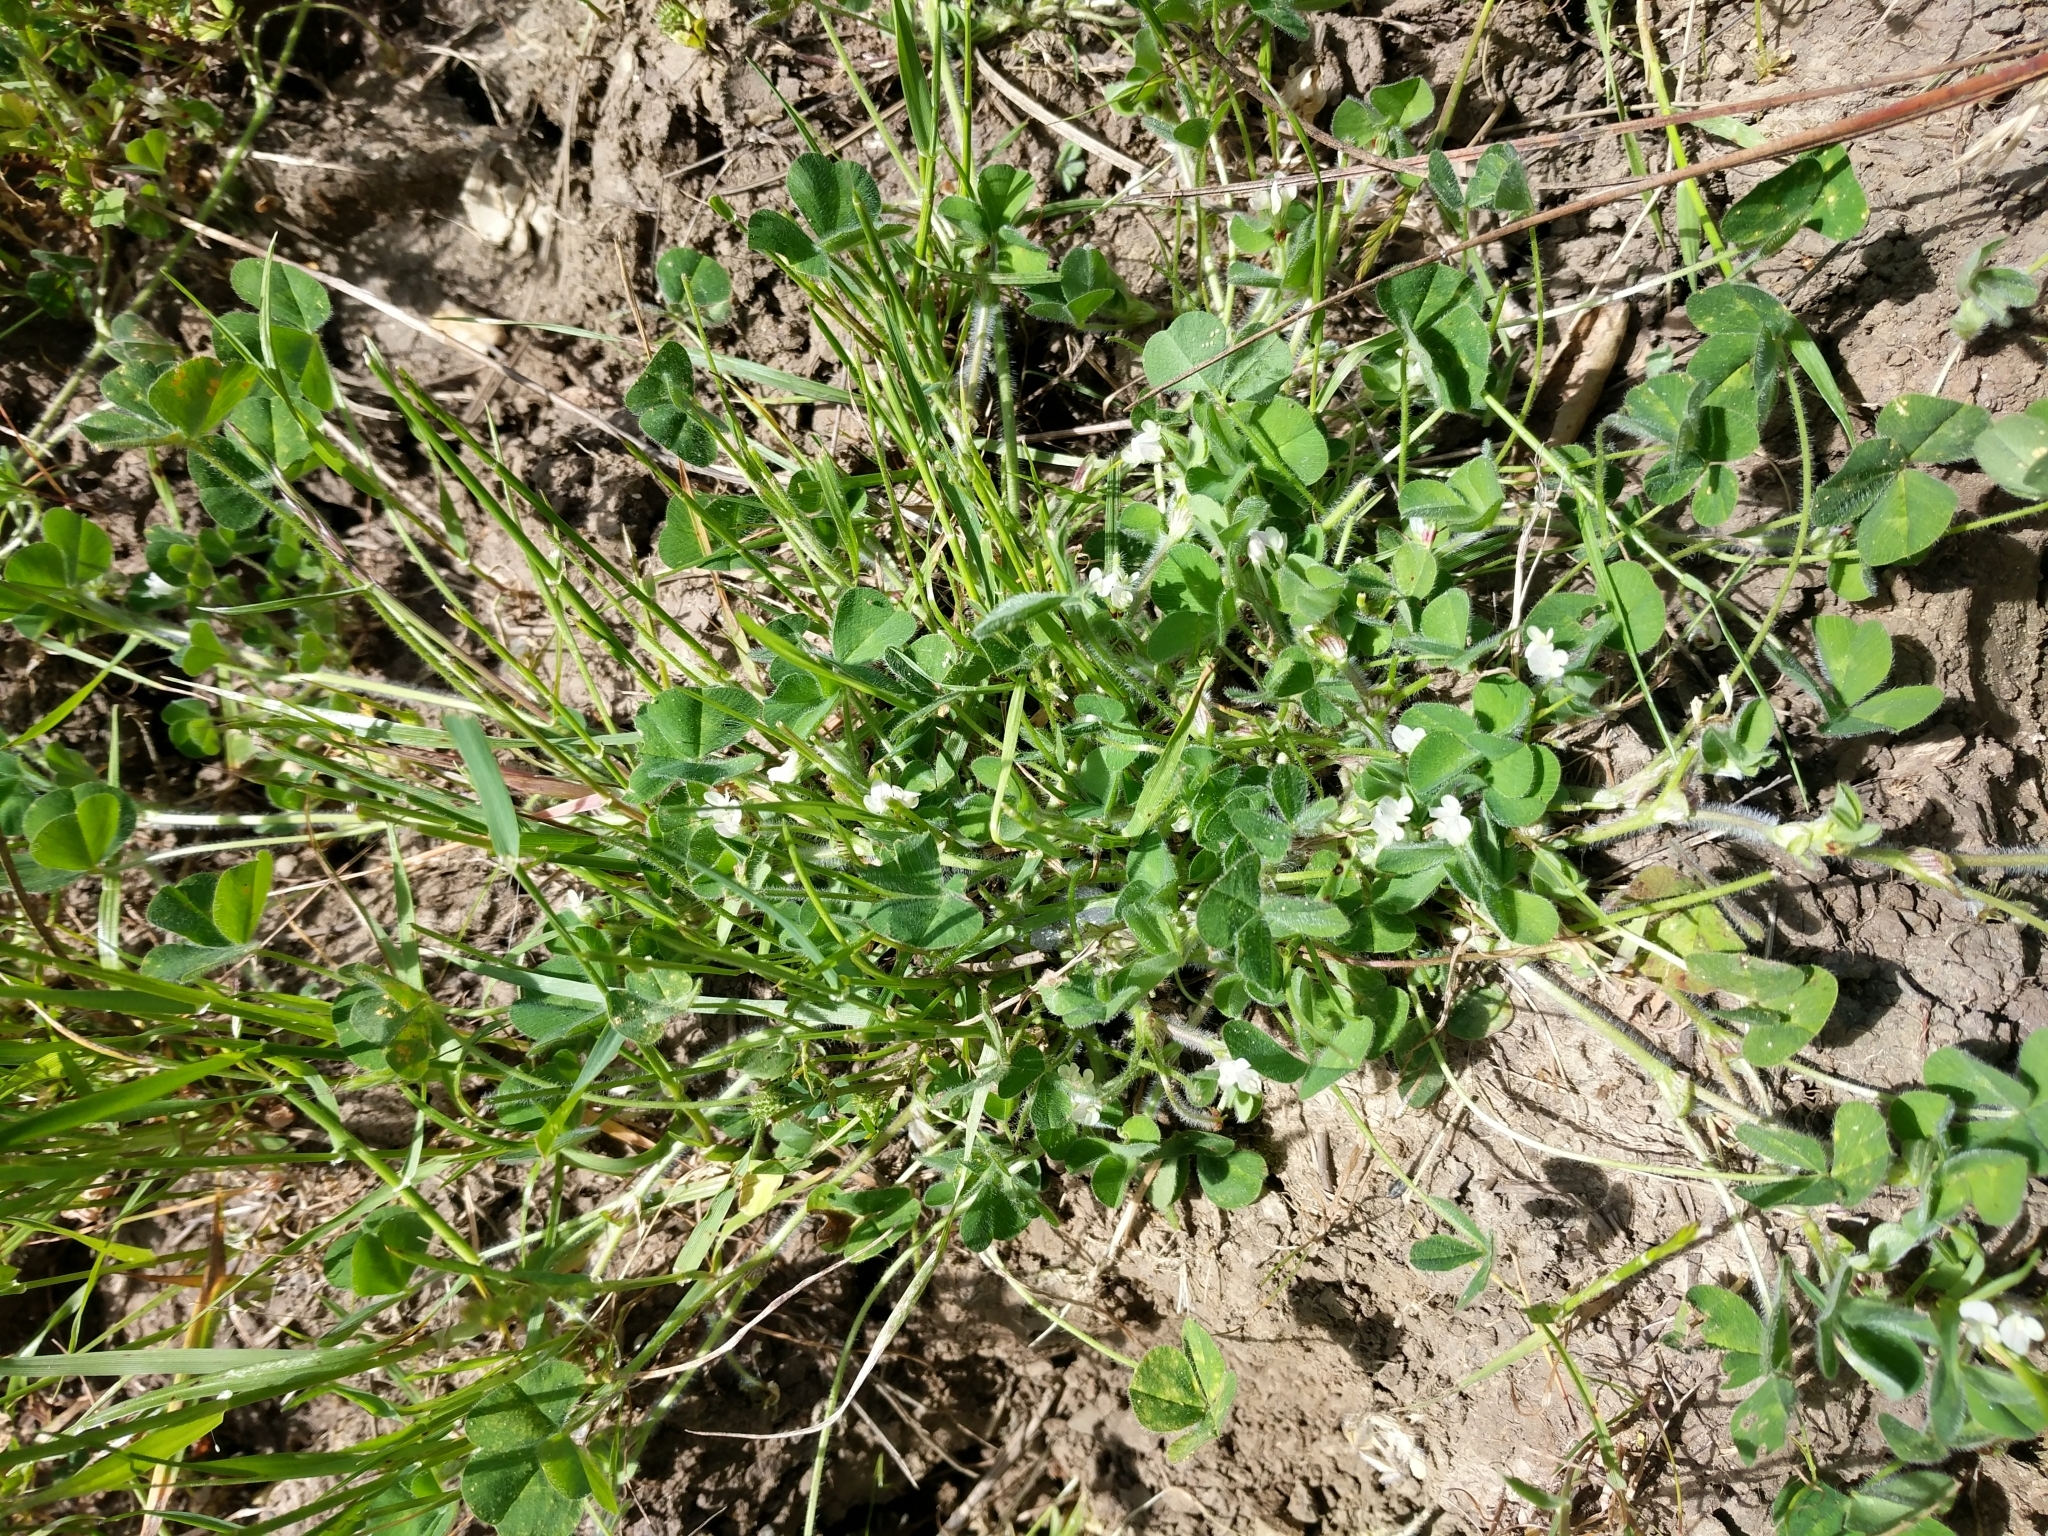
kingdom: Plantae
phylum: Tracheophyta
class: Magnoliopsida
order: Fabales
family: Fabaceae
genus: Trifolium
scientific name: Trifolium subterraneum
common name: Subterranean clover
